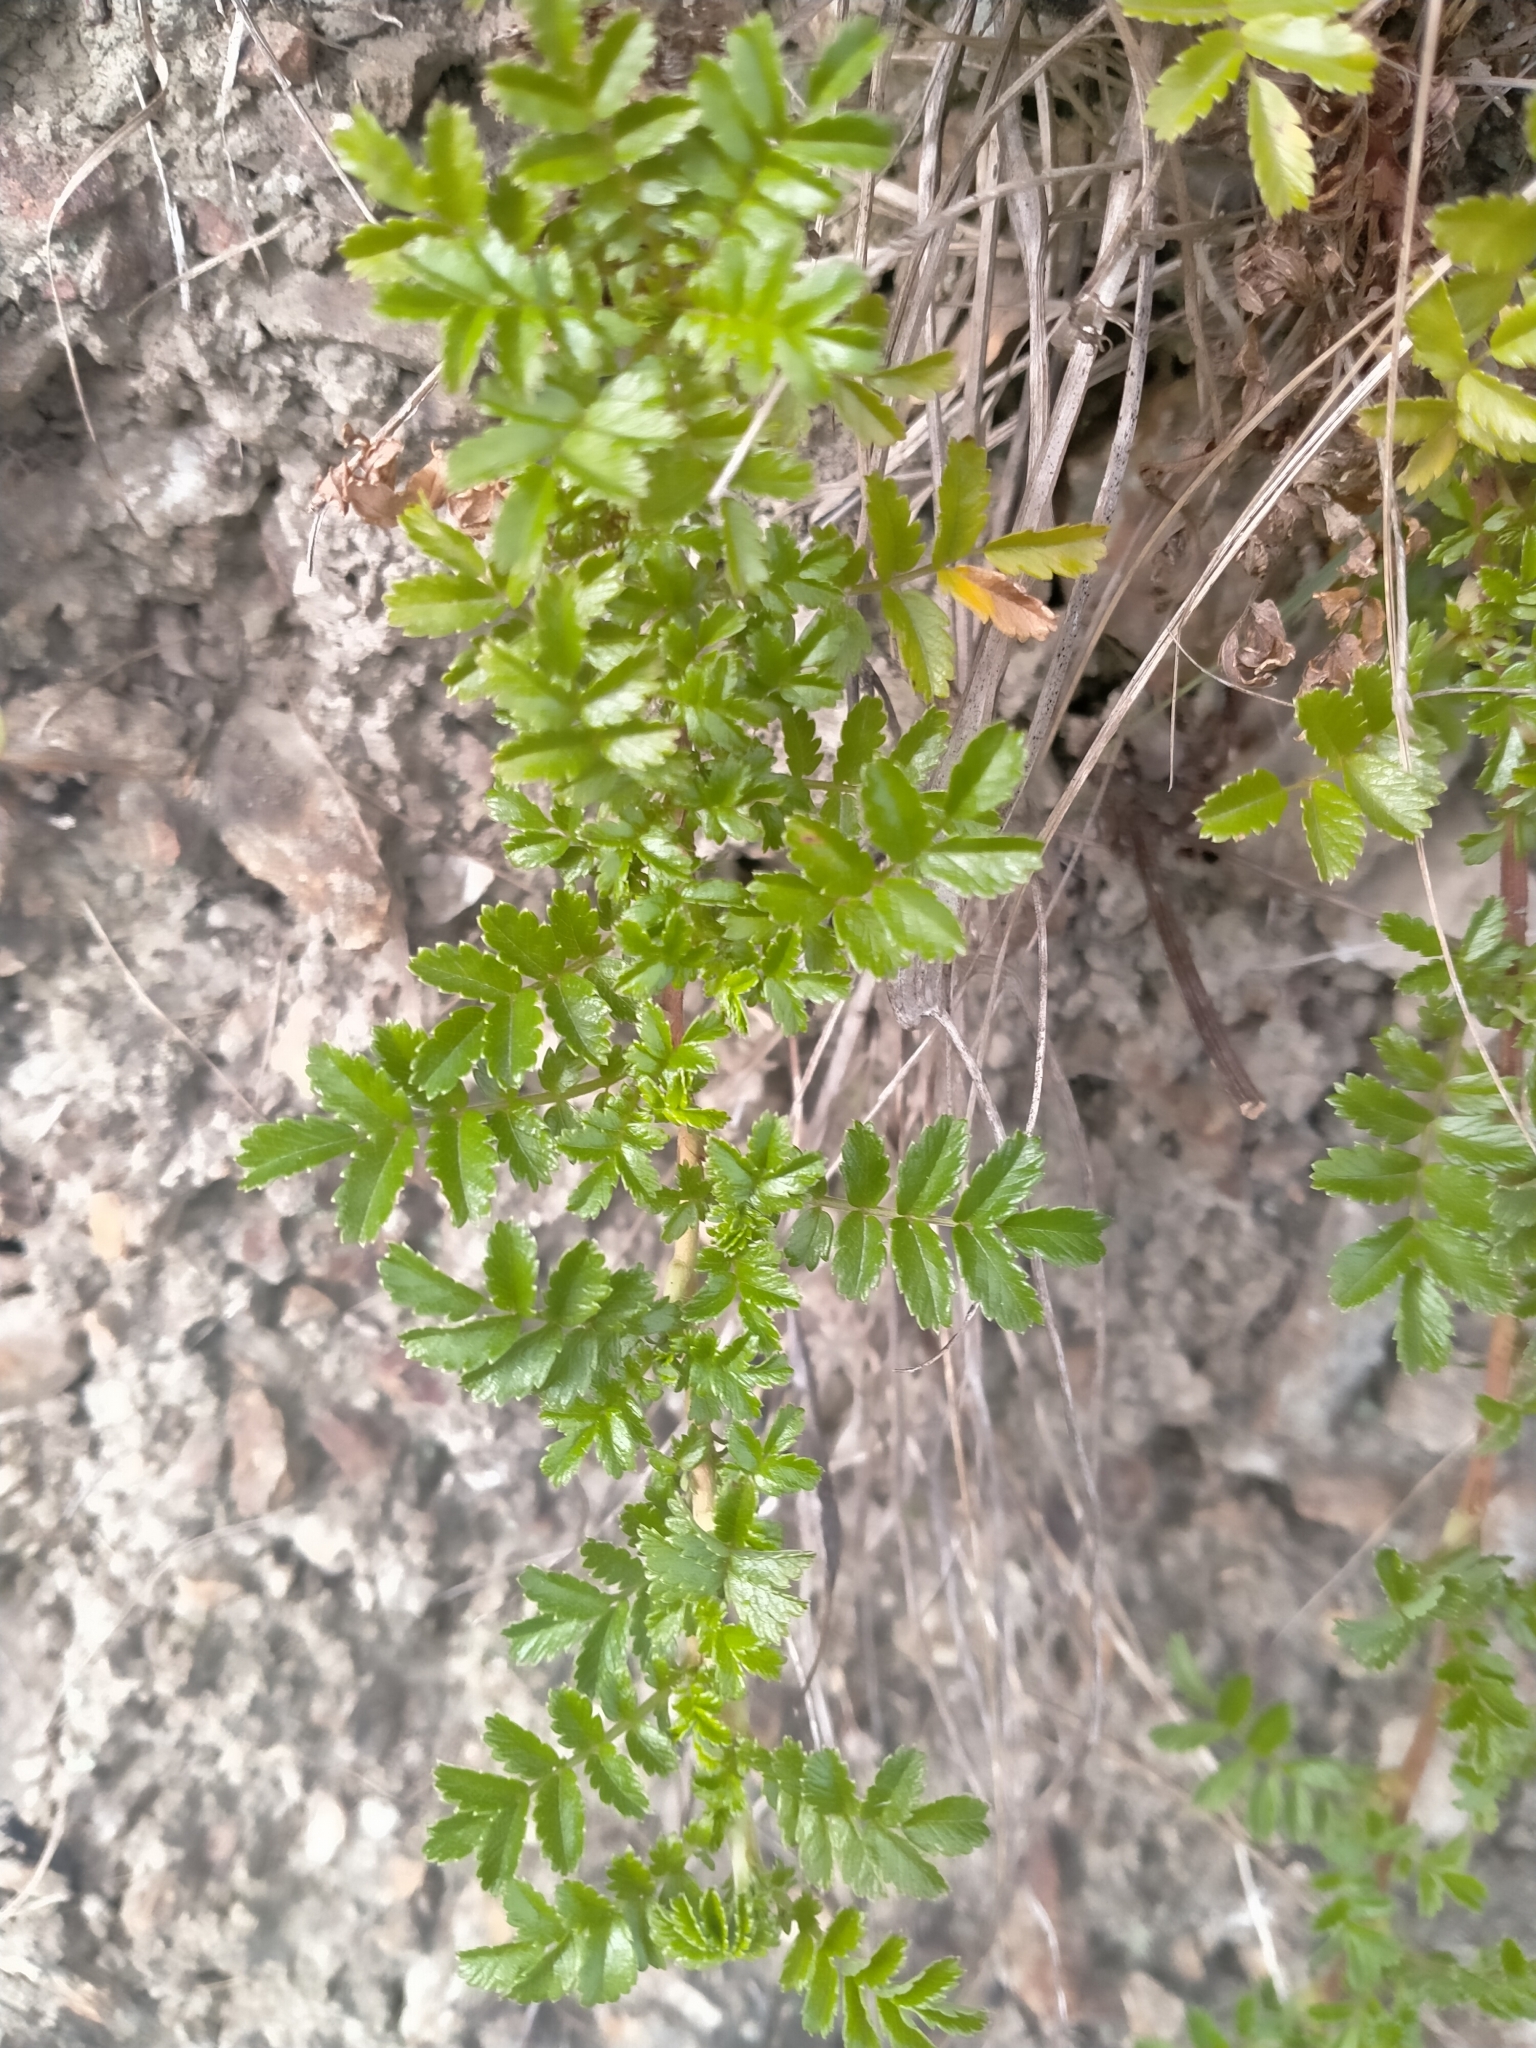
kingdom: Plantae
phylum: Tracheophyta
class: Magnoliopsida
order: Rosales
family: Rosaceae
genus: Acaena
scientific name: Acaena novae-zelandiae
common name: Pirri-pirri-bur
